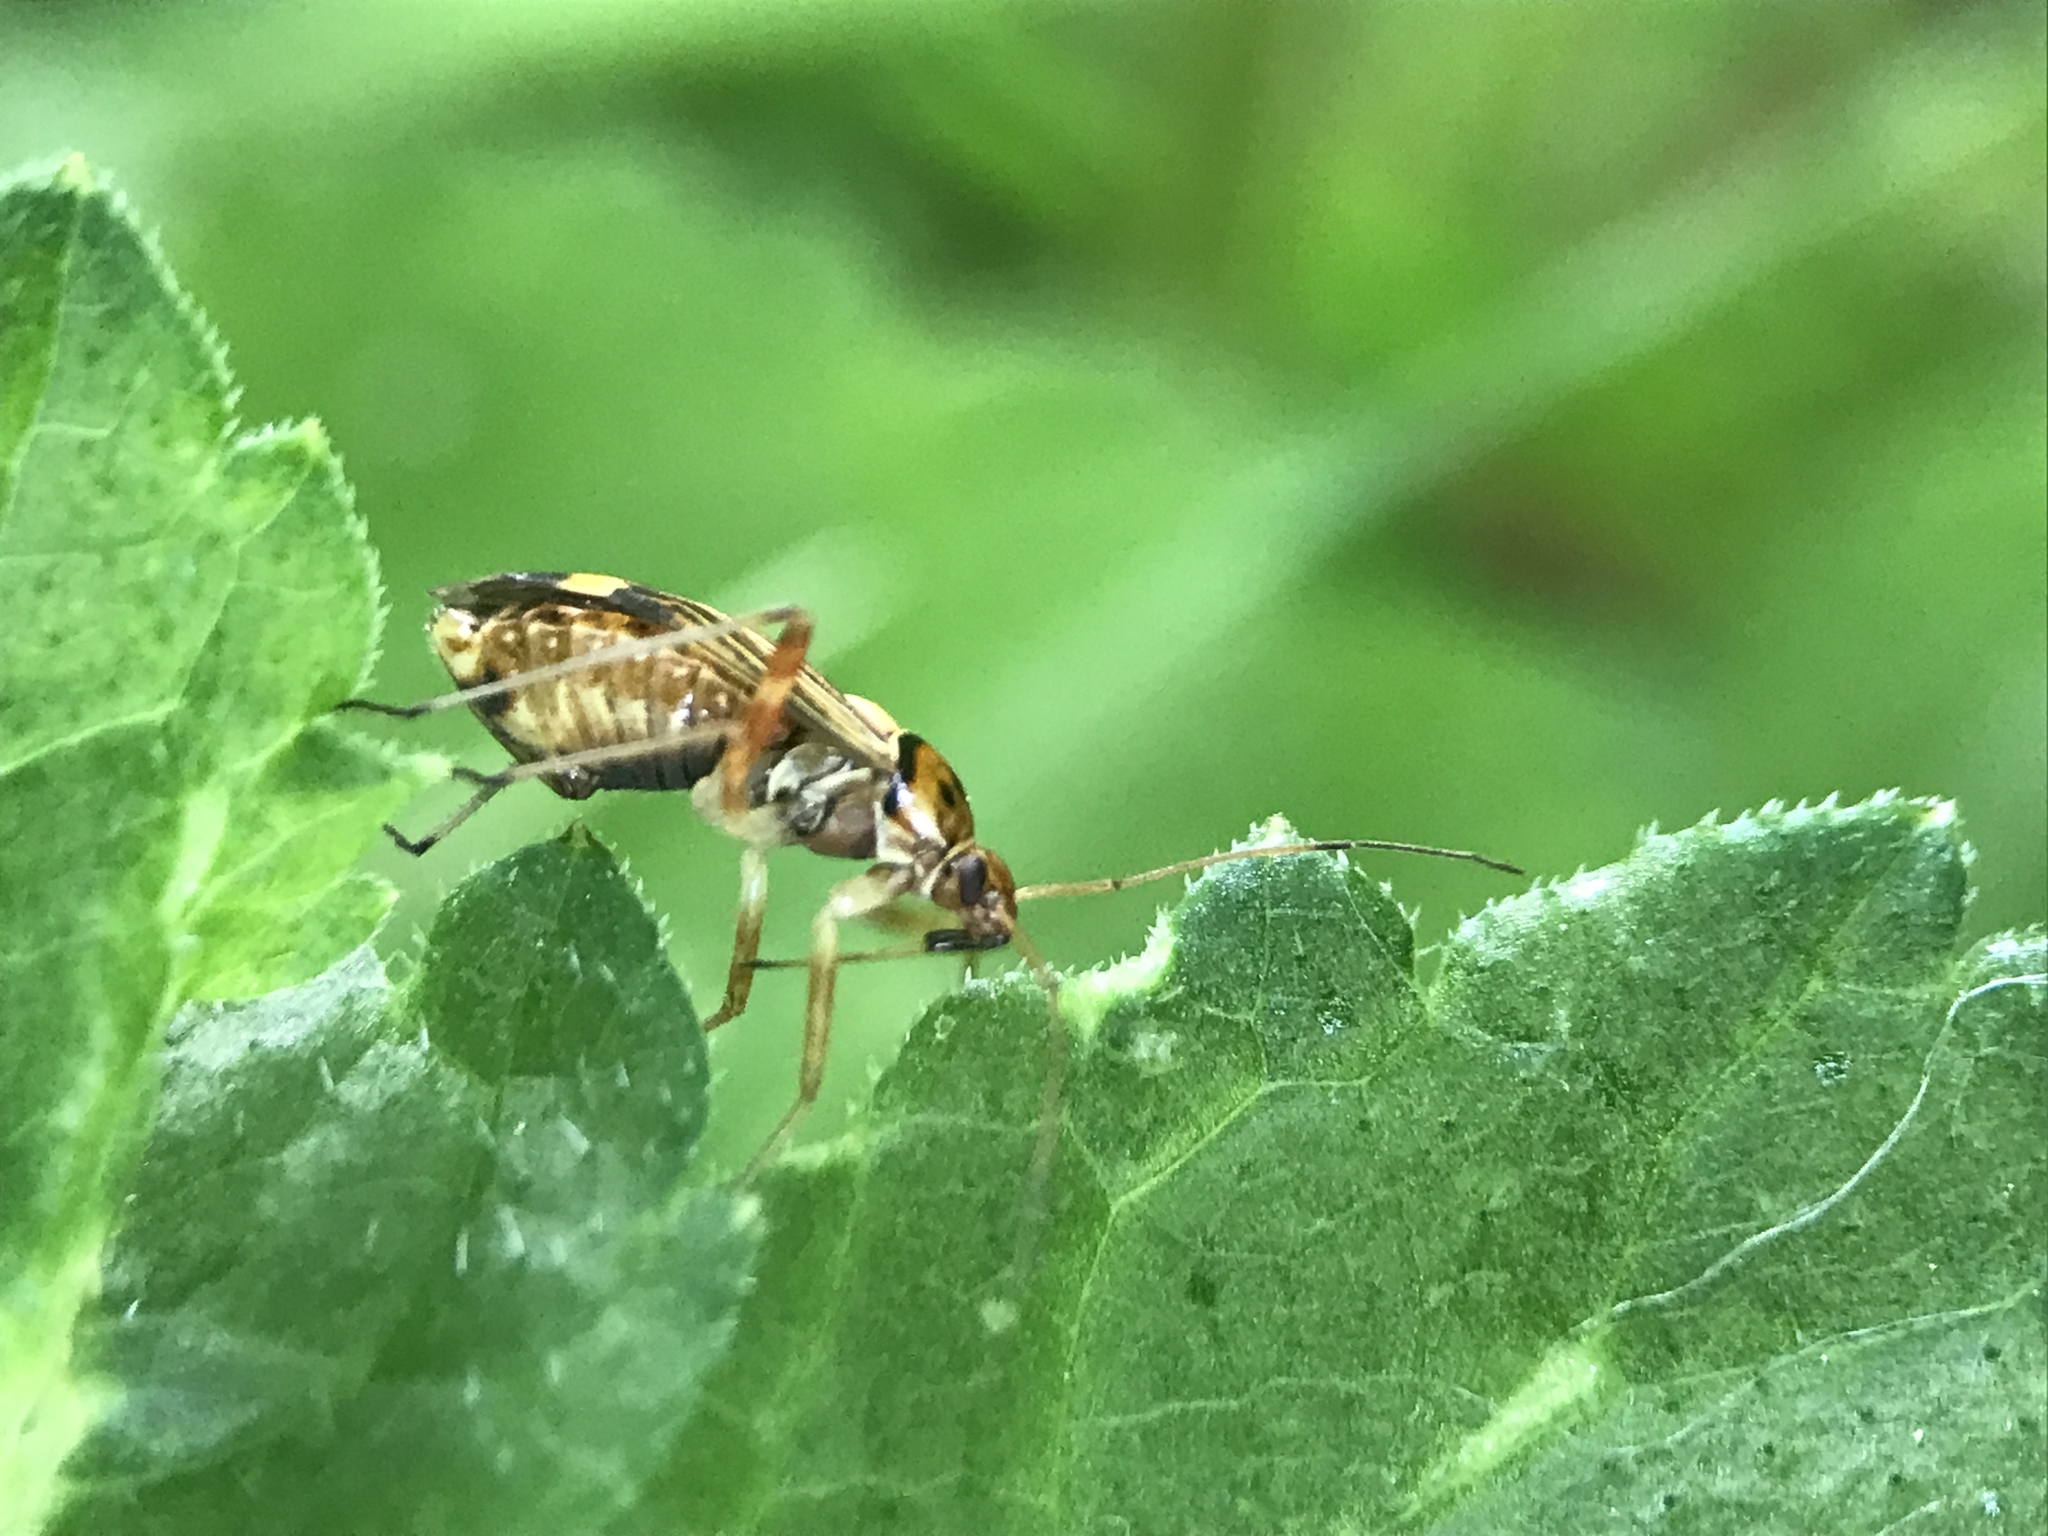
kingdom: Animalia
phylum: Arthropoda
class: Insecta
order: Hemiptera
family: Miridae
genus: Rhabdomiris
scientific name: Rhabdomiris striatellus
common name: Plant bug
